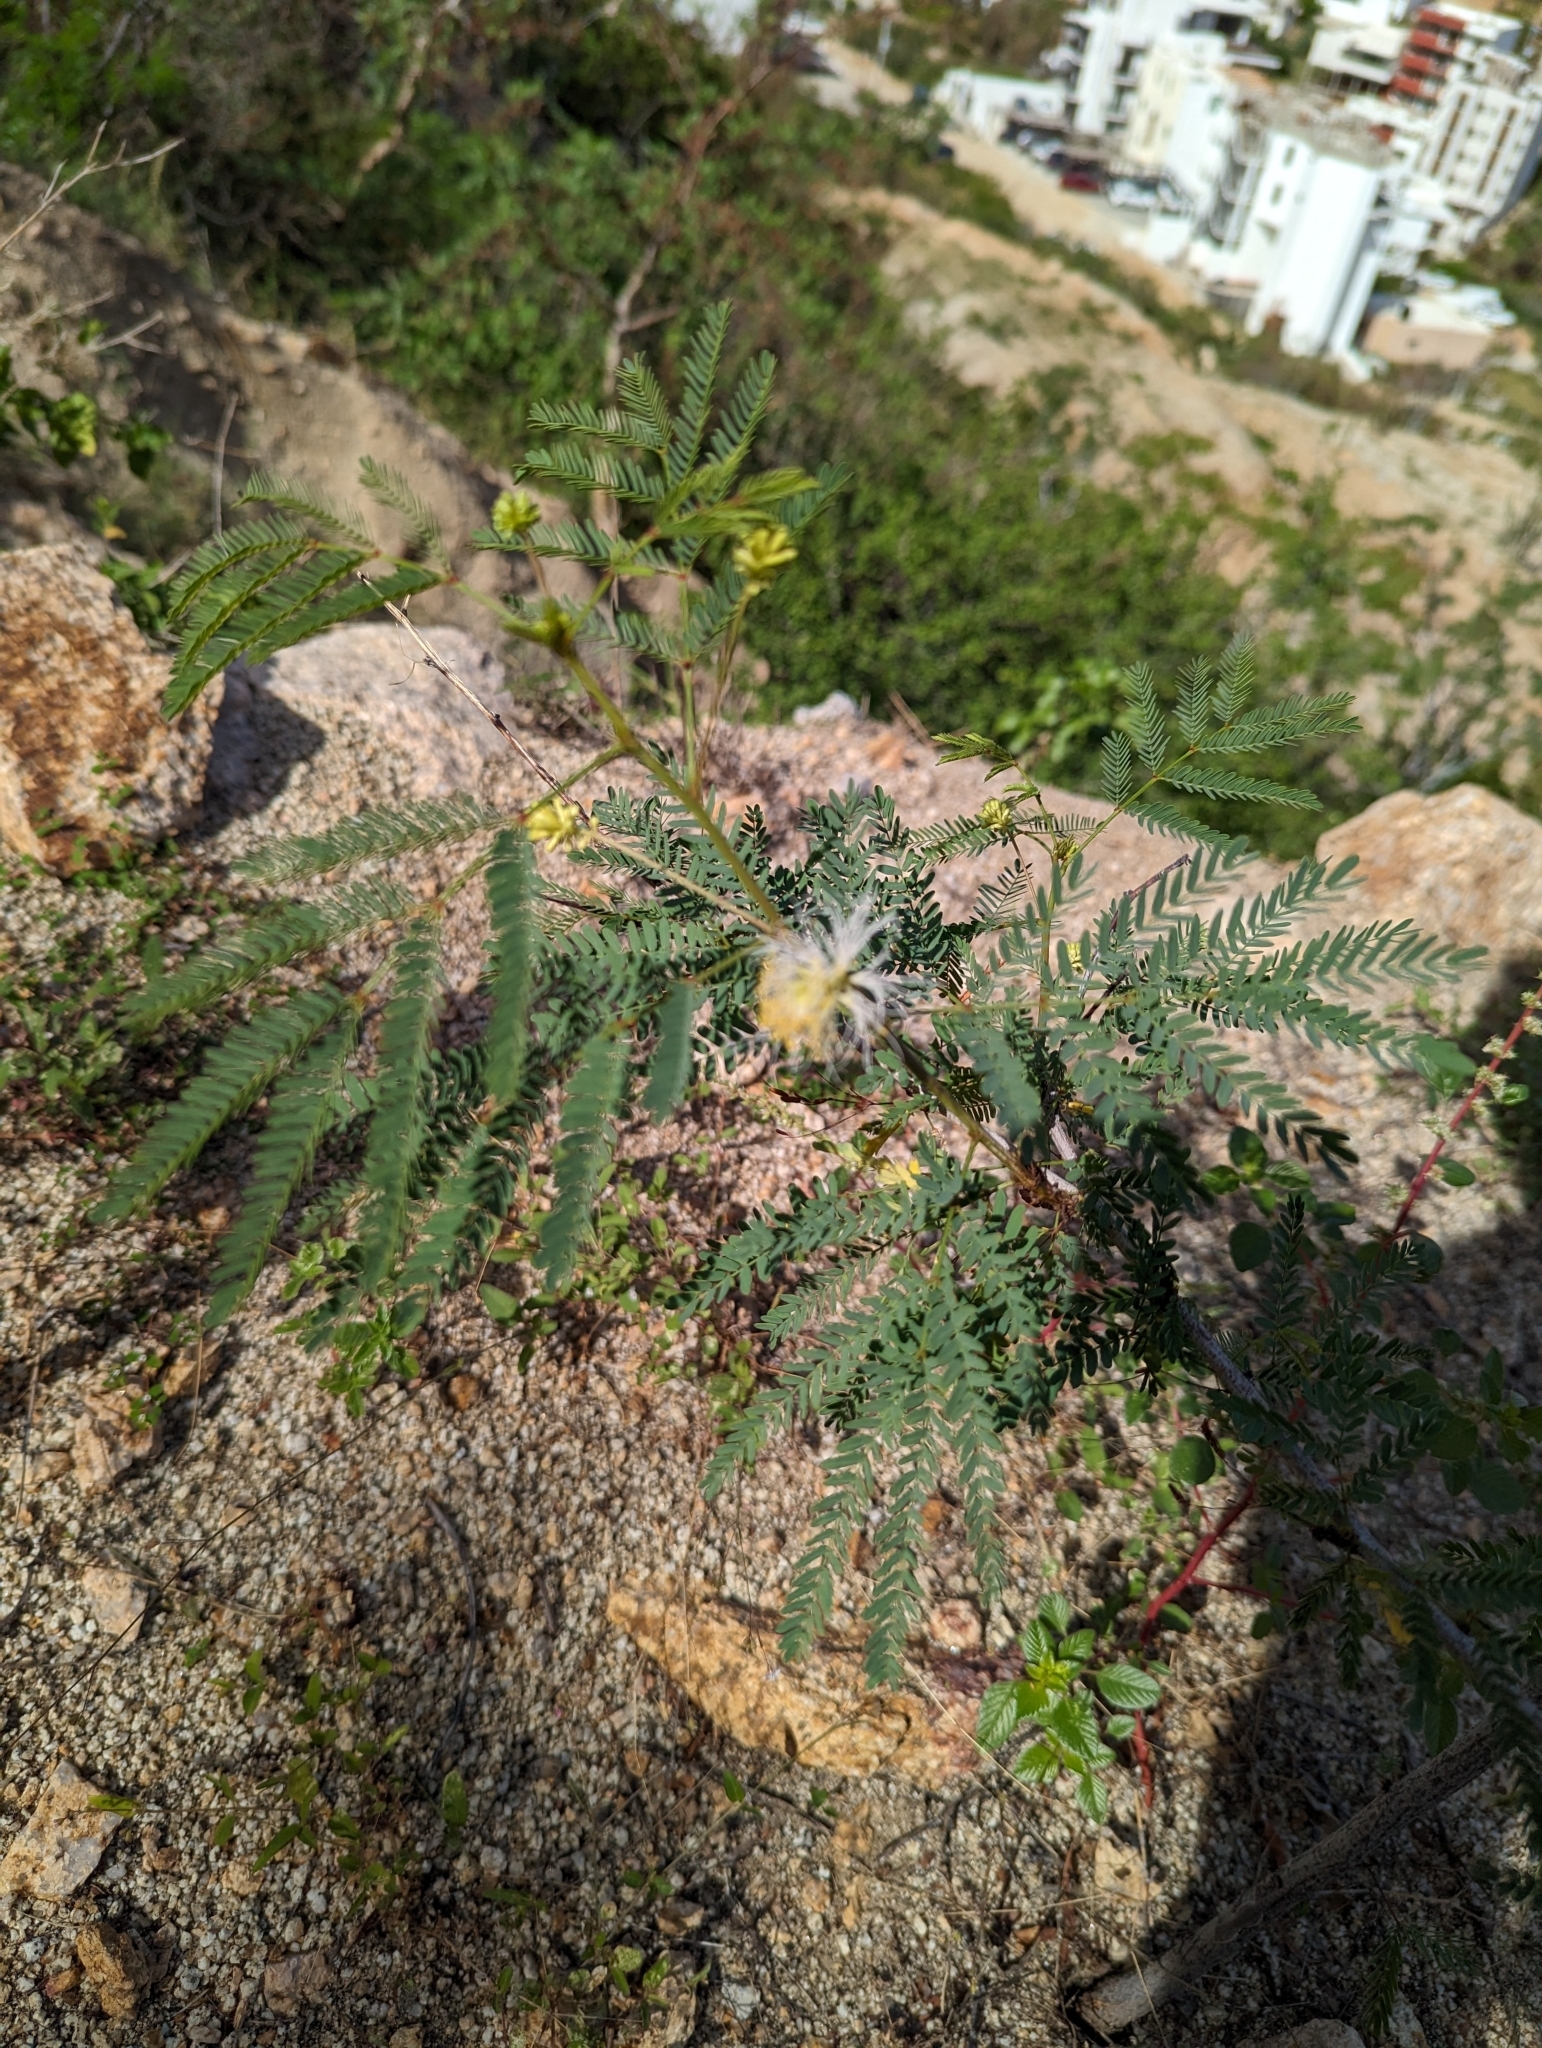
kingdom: Plantae
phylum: Tracheophyta
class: Magnoliopsida
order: Fabales
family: Fabaceae
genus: Desmanthus
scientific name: Desmanthus fruticosus
